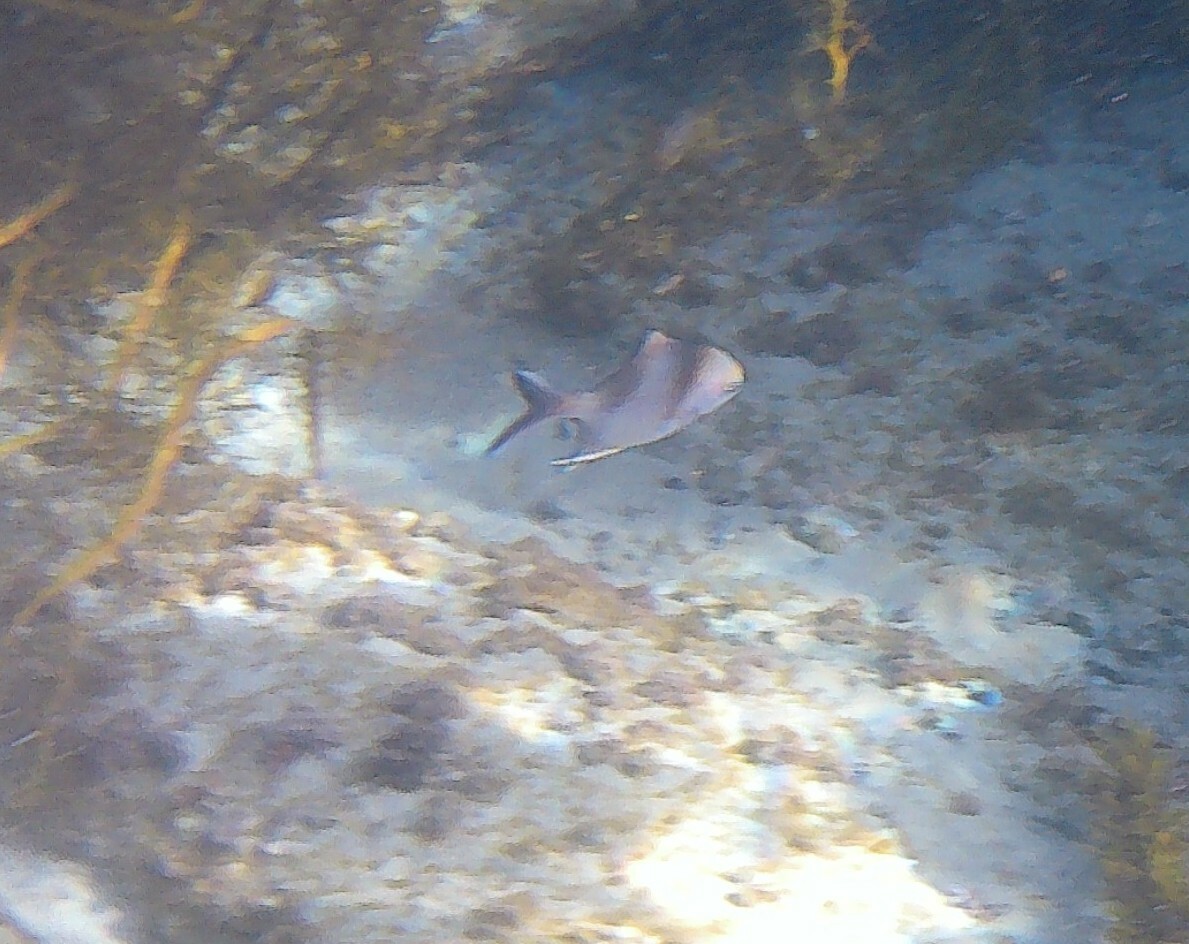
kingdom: Animalia
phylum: Chordata
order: Perciformes
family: Kyphosidae
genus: Scorpis
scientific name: Scorpis aequipinnis
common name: Sea sweep
